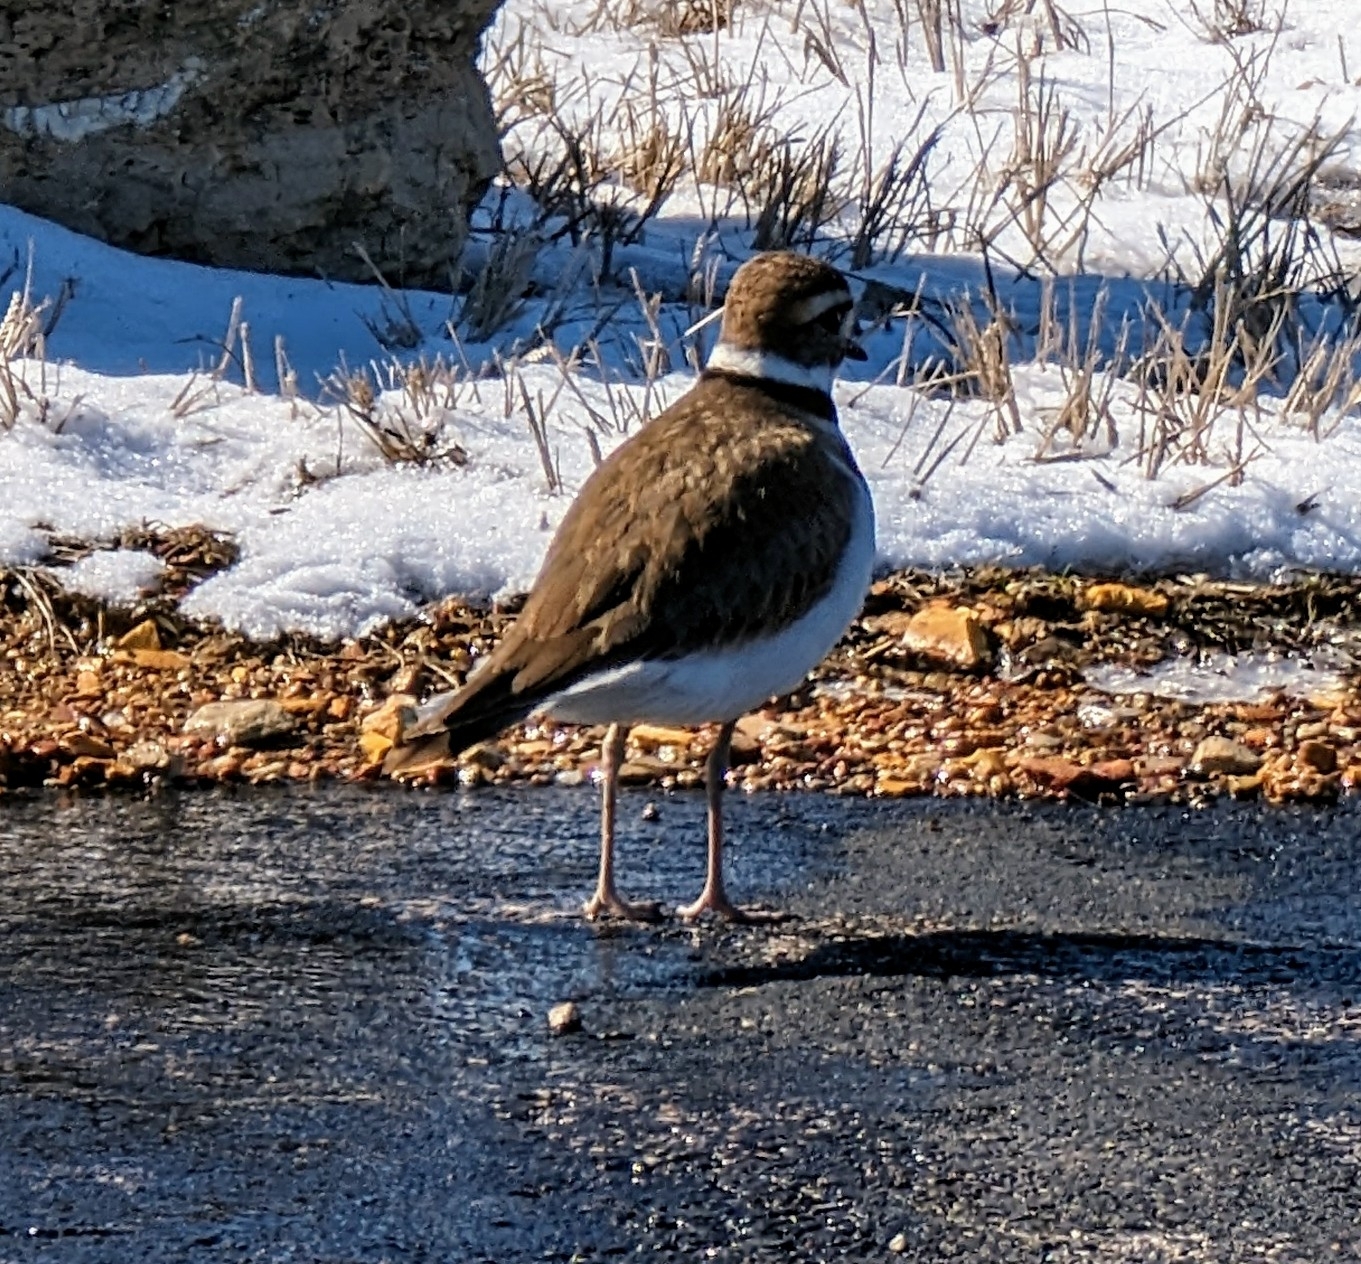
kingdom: Animalia
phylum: Chordata
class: Aves
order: Charadriiformes
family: Charadriidae
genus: Charadrius
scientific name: Charadrius vociferus
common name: Killdeer
